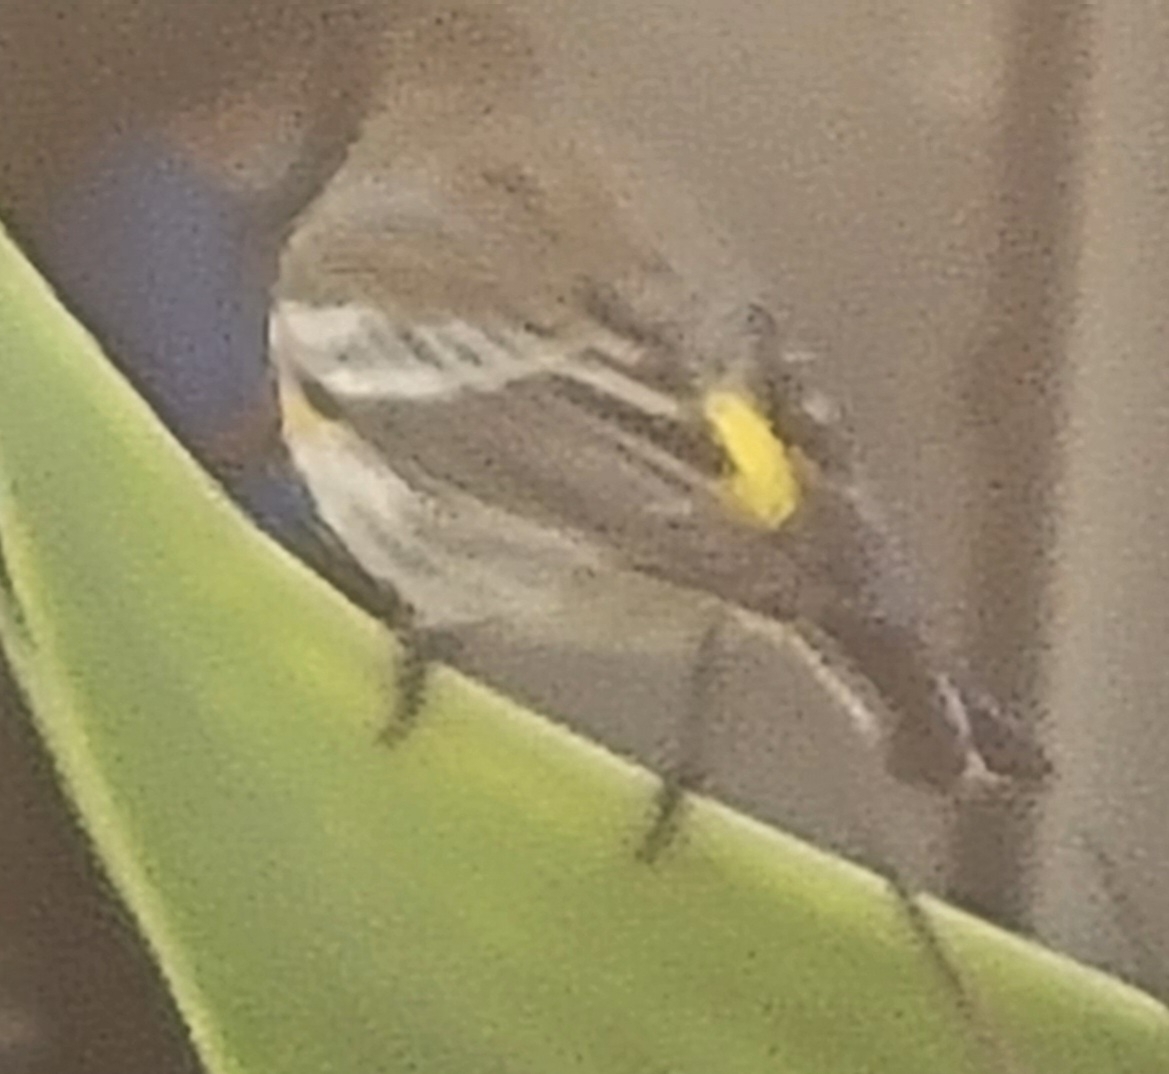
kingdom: Animalia
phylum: Chordata
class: Aves
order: Passeriformes
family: Parulidae
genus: Setophaga
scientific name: Setophaga coronata
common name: Myrtle warbler
